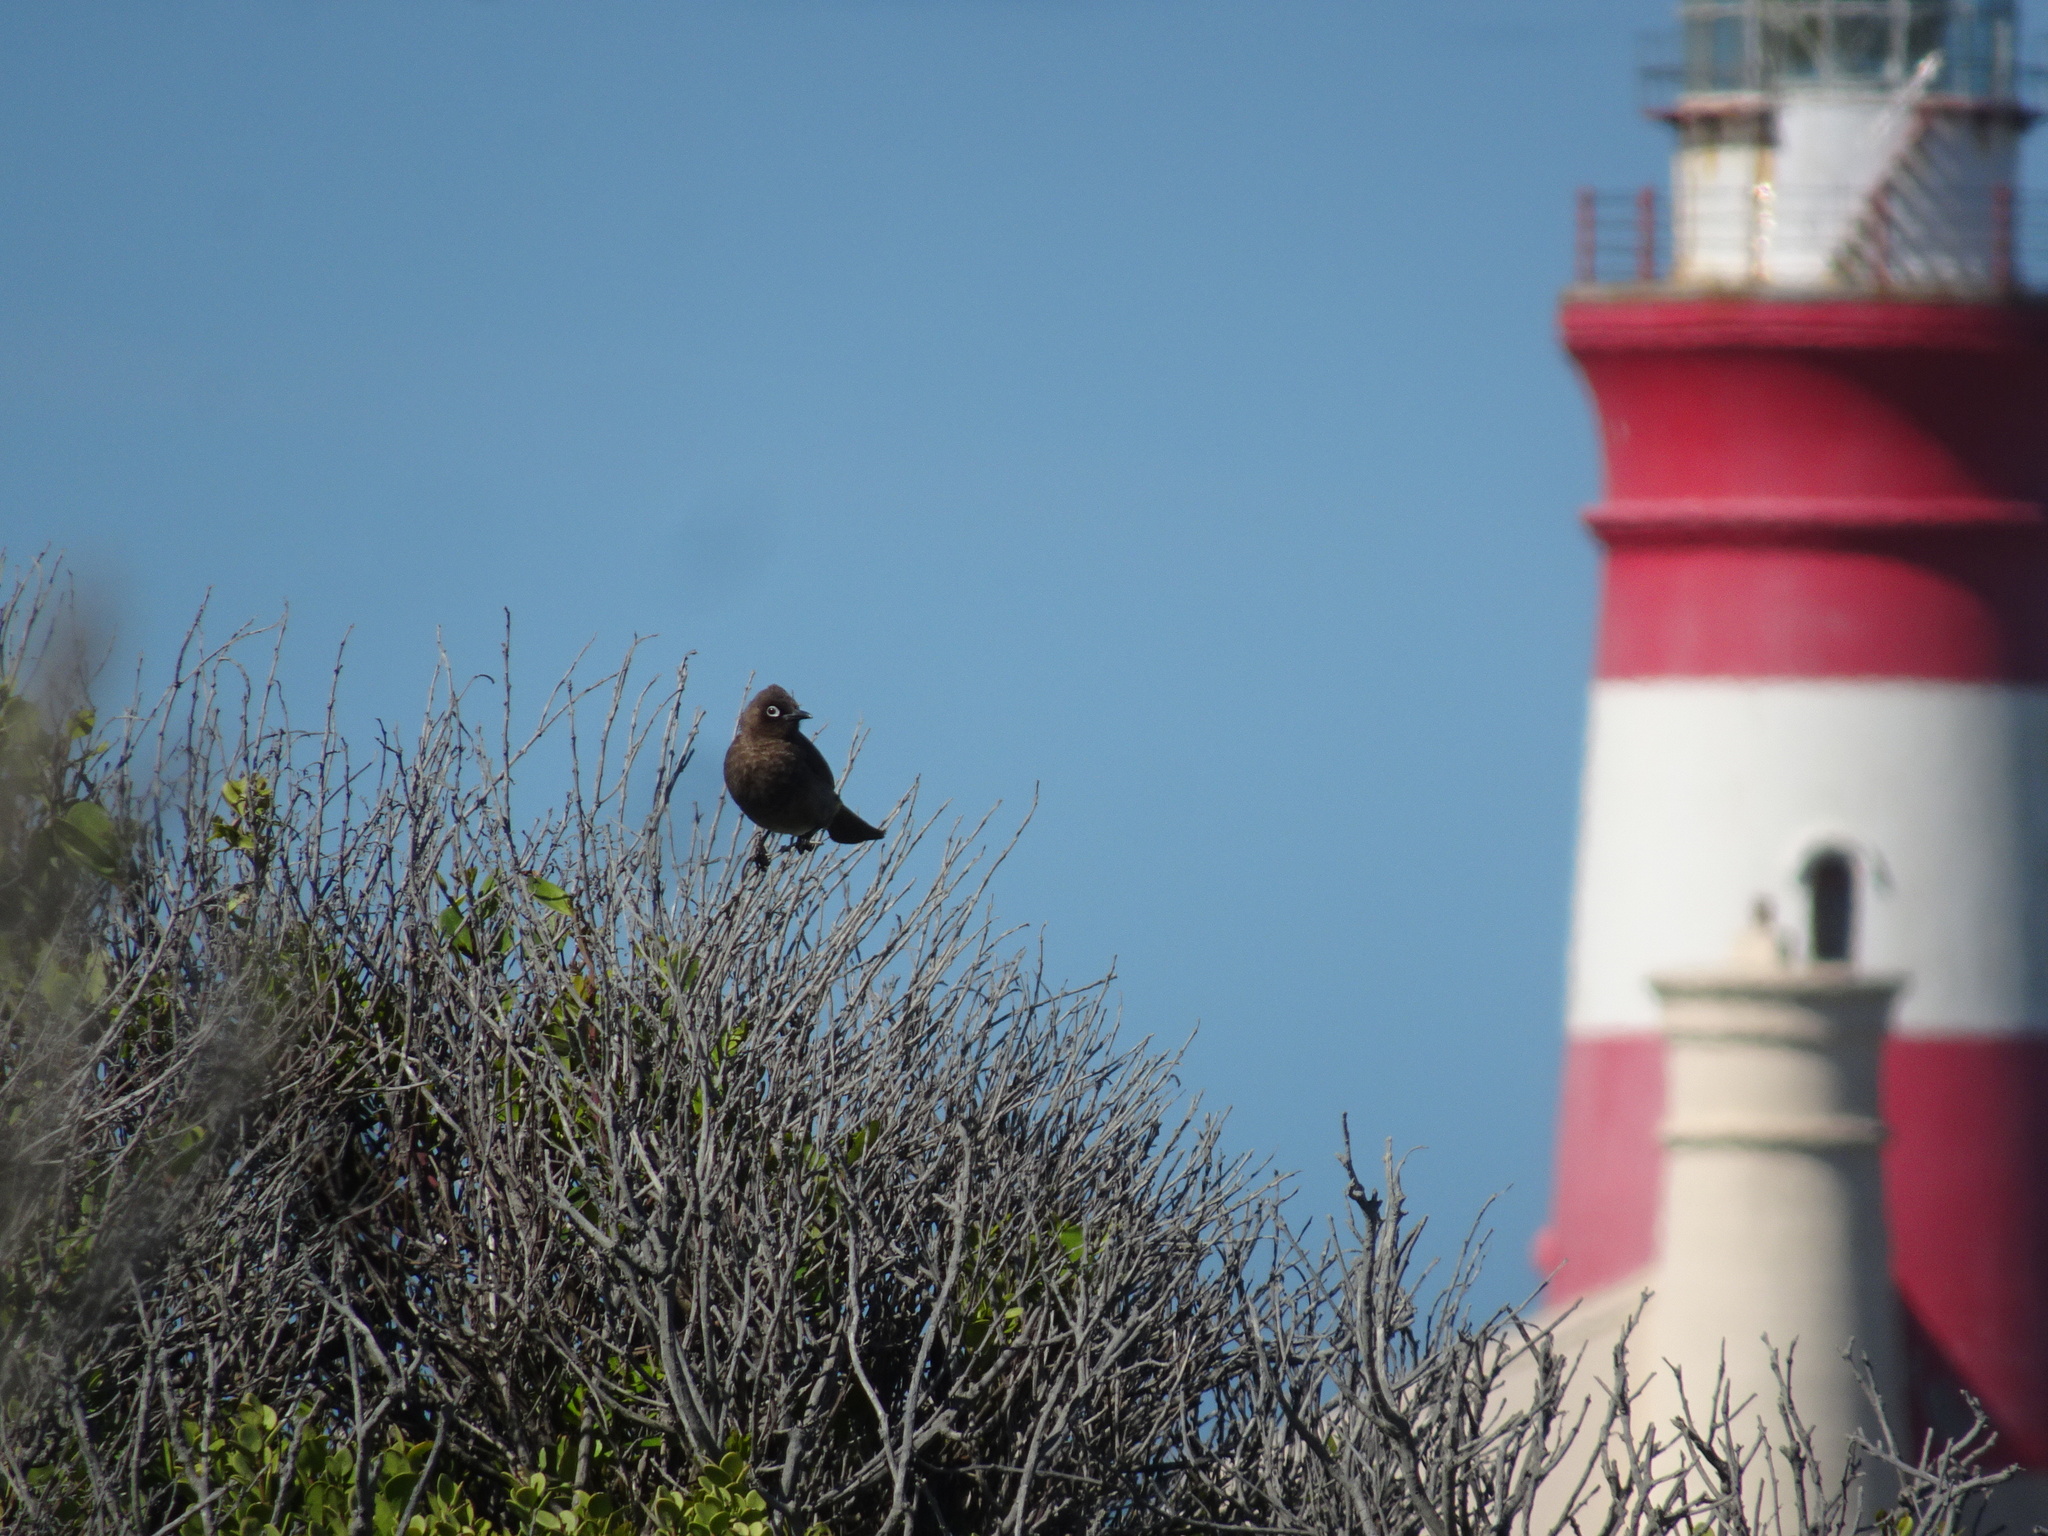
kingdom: Animalia
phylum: Chordata
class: Aves
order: Passeriformes
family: Pycnonotidae
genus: Pycnonotus
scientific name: Pycnonotus capensis
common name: Cape bulbul
